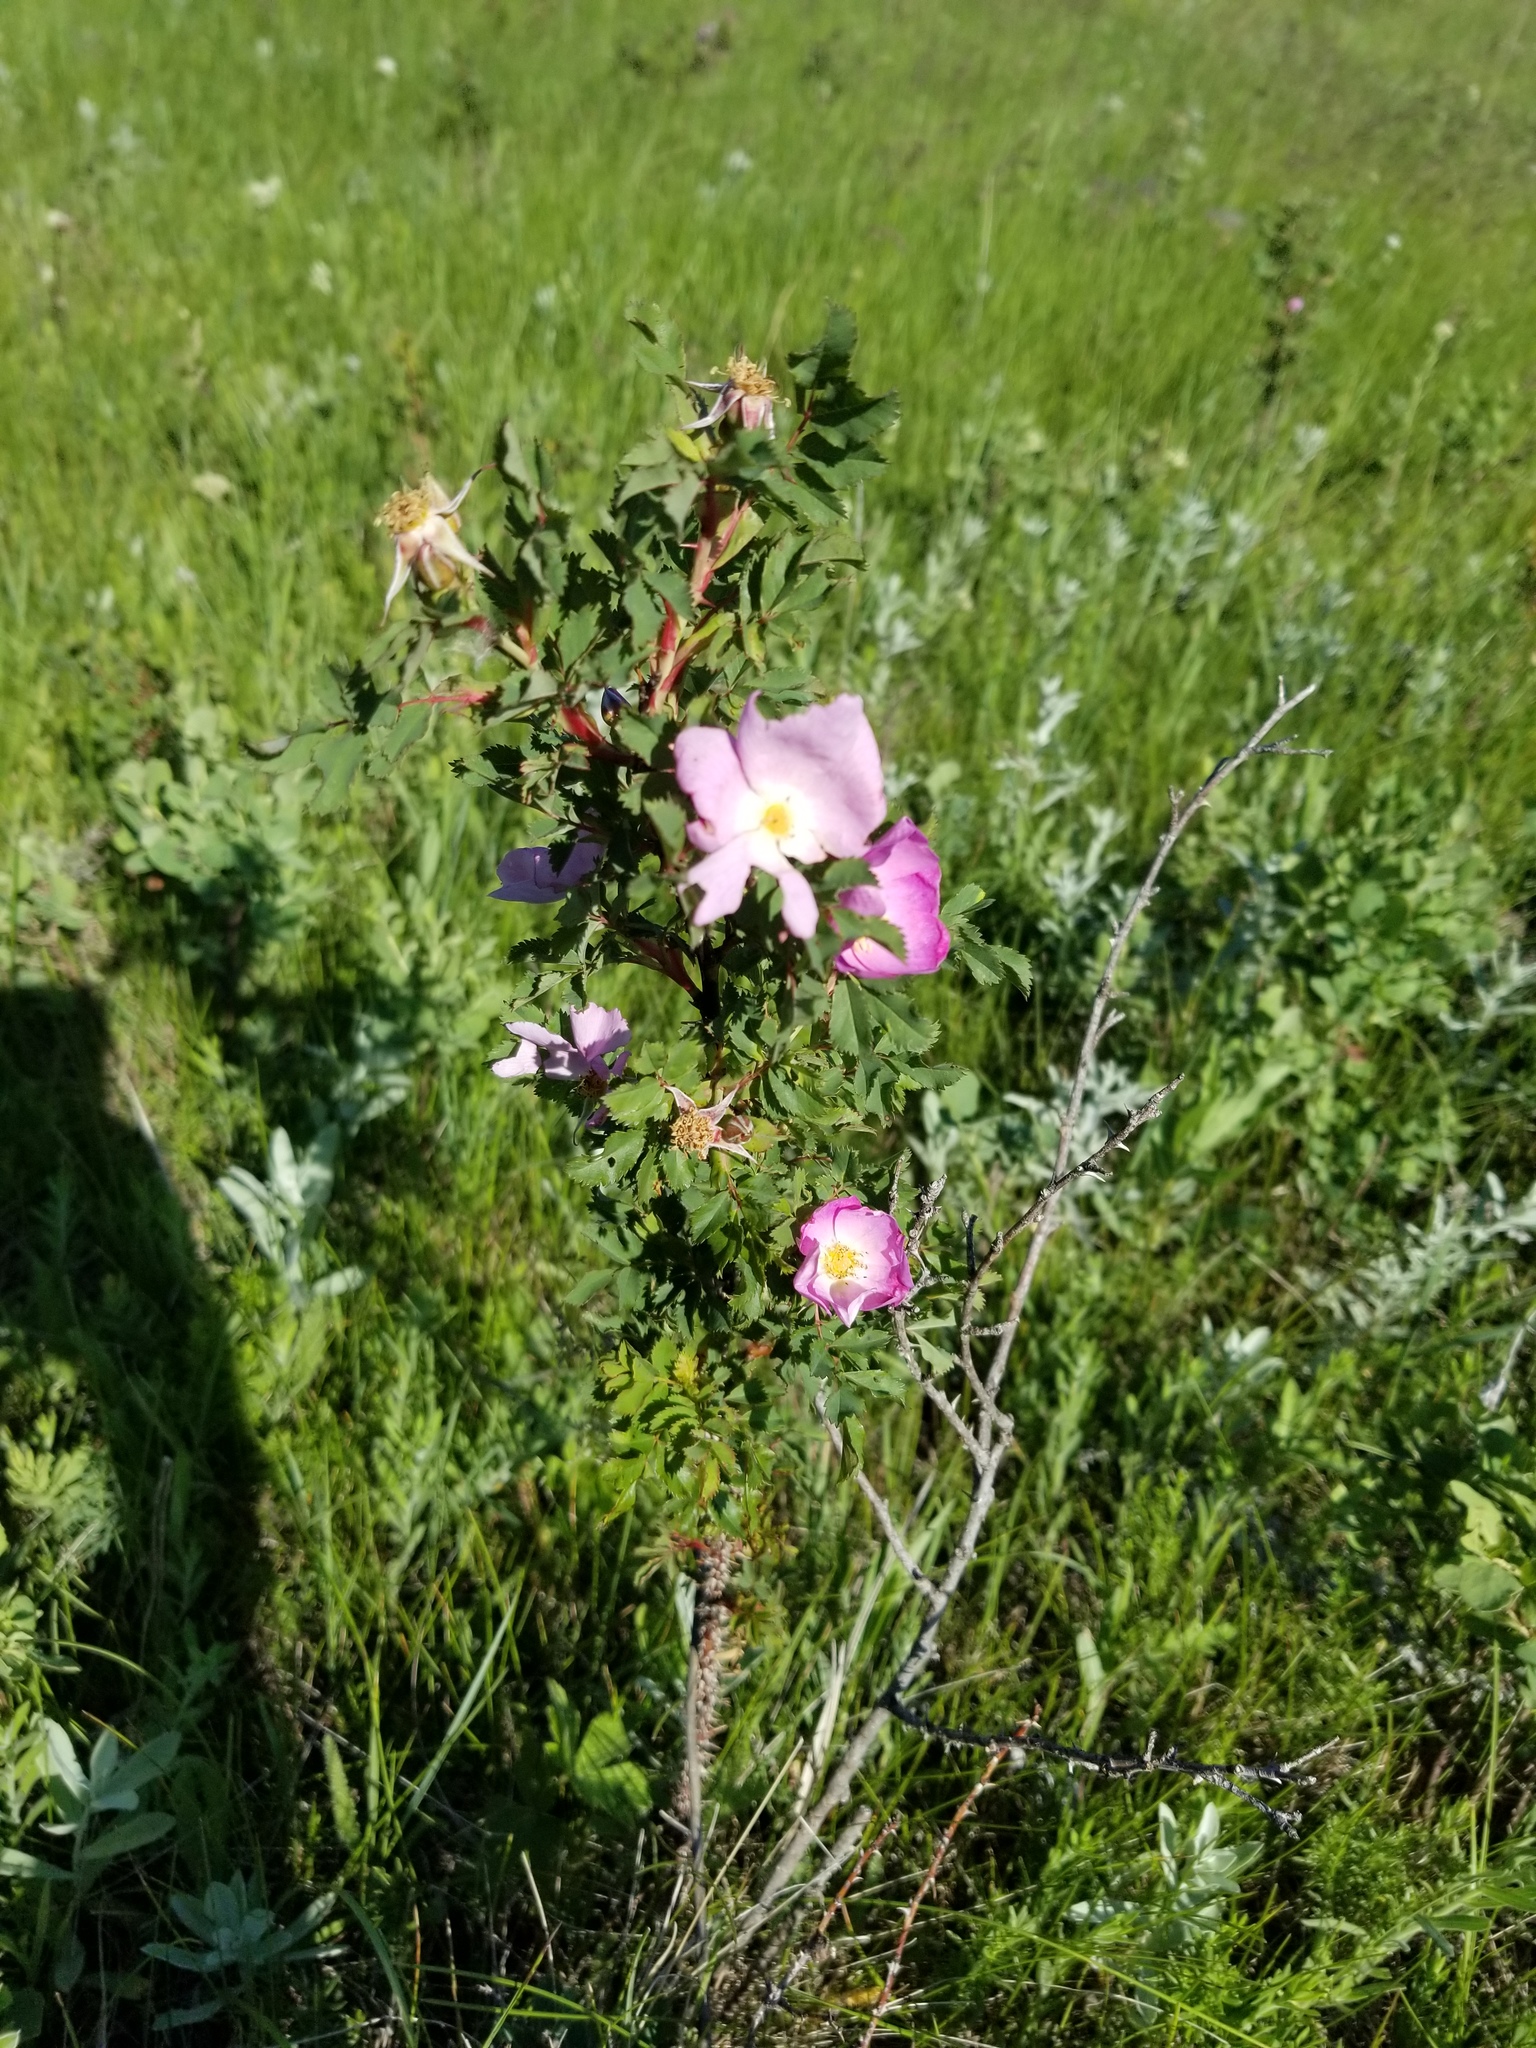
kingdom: Plantae
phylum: Tracheophyta
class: Magnoliopsida
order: Rosales
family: Rosaceae
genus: Rosa
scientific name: Rosa woodsii
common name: Woods's rose
